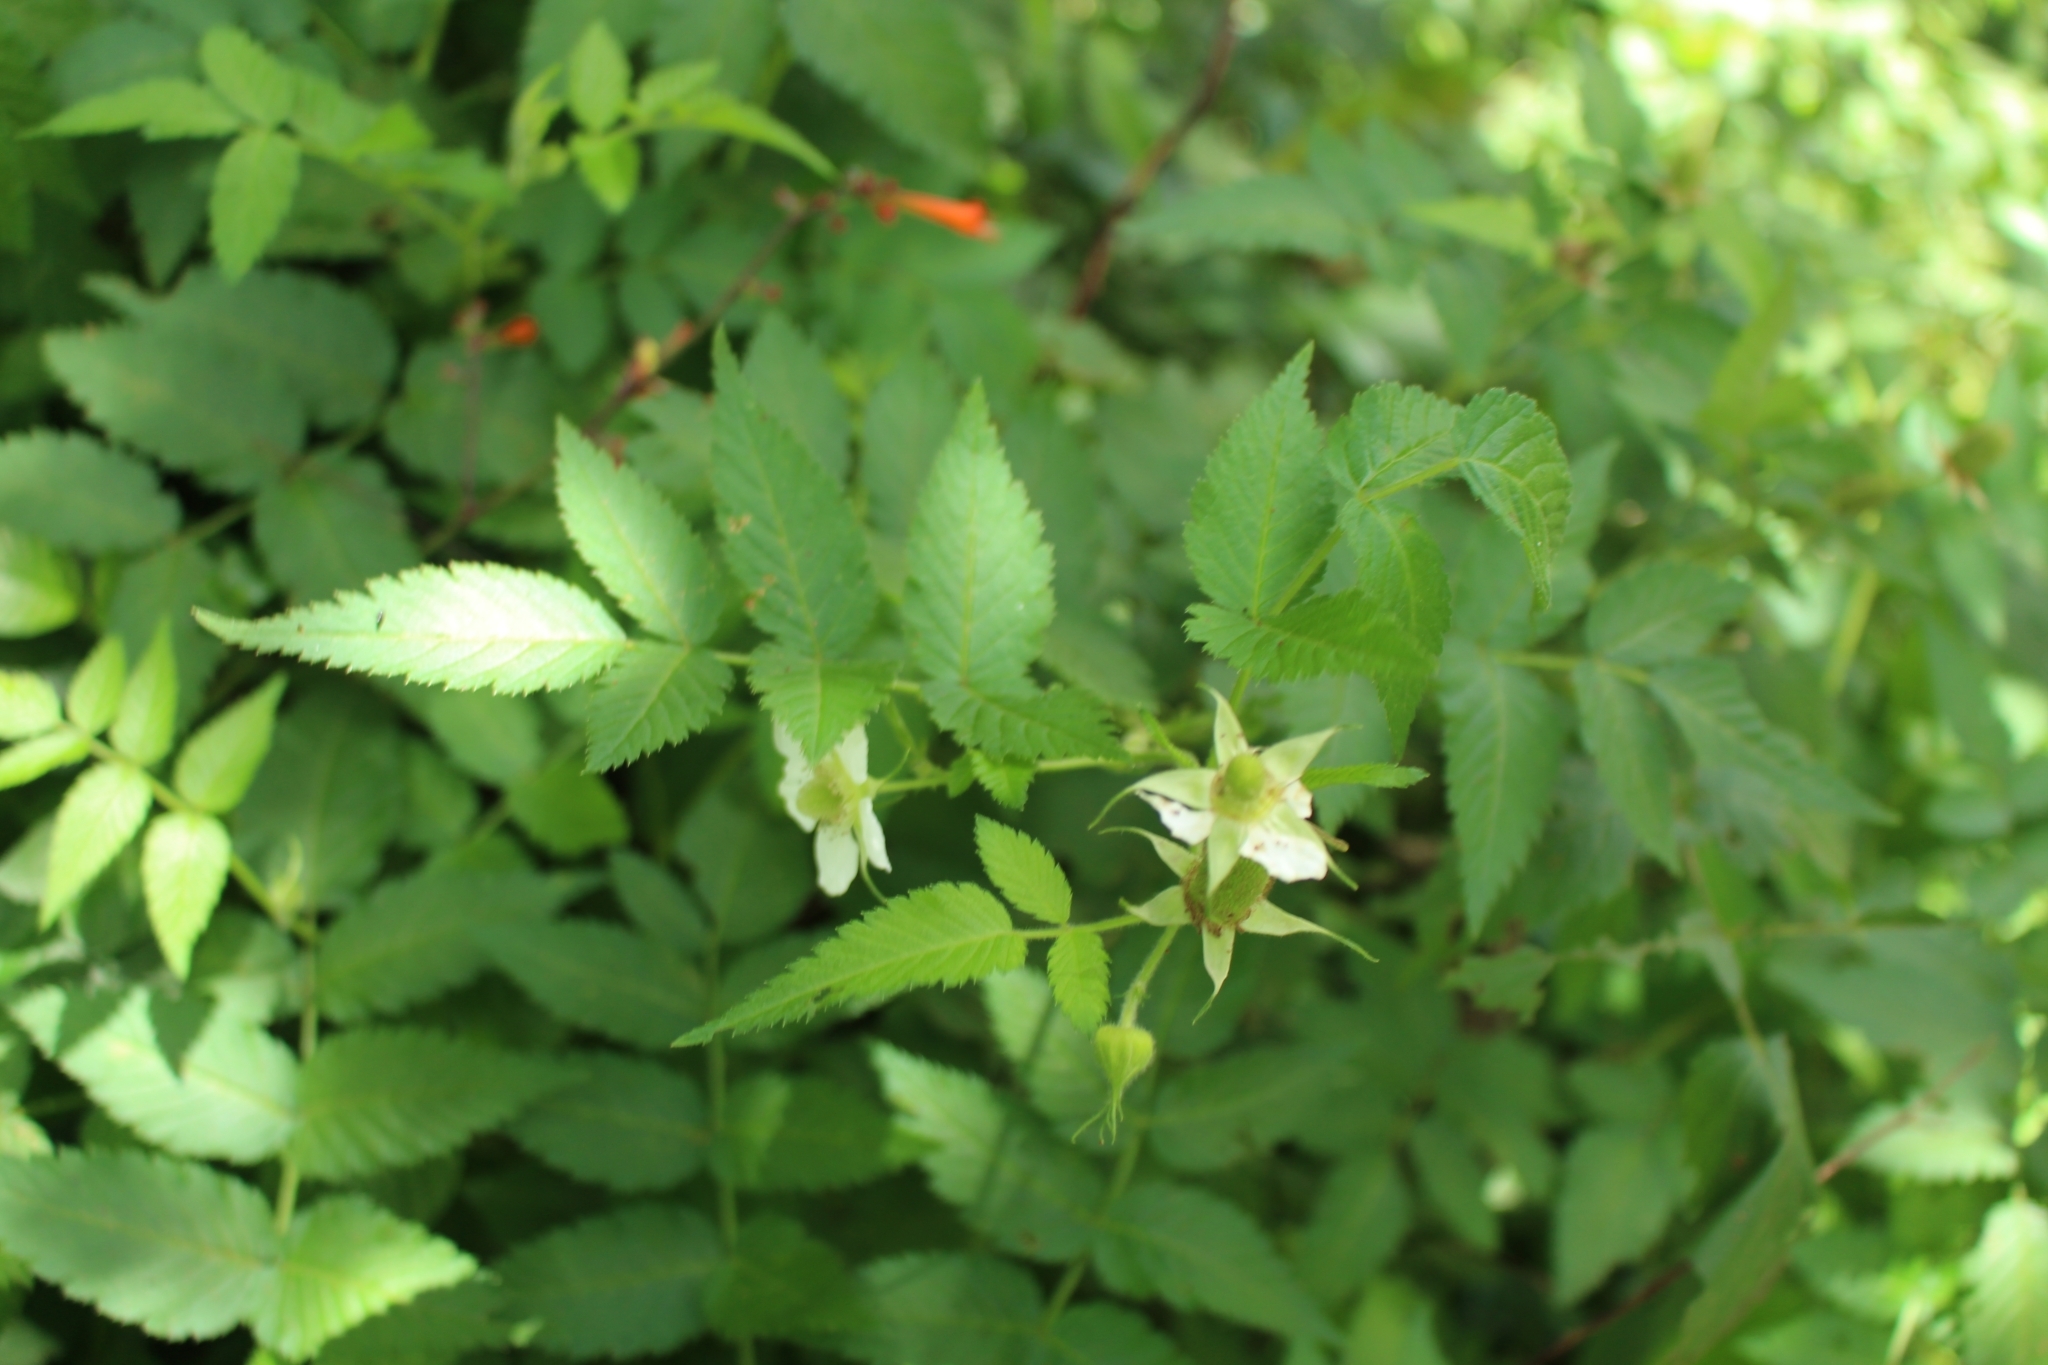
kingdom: Plantae
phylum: Tracheophyta
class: Magnoliopsida
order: Rosales
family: Rosaceae
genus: Rubus
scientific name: Rubus rosifolius
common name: Roseleaf raspberry
